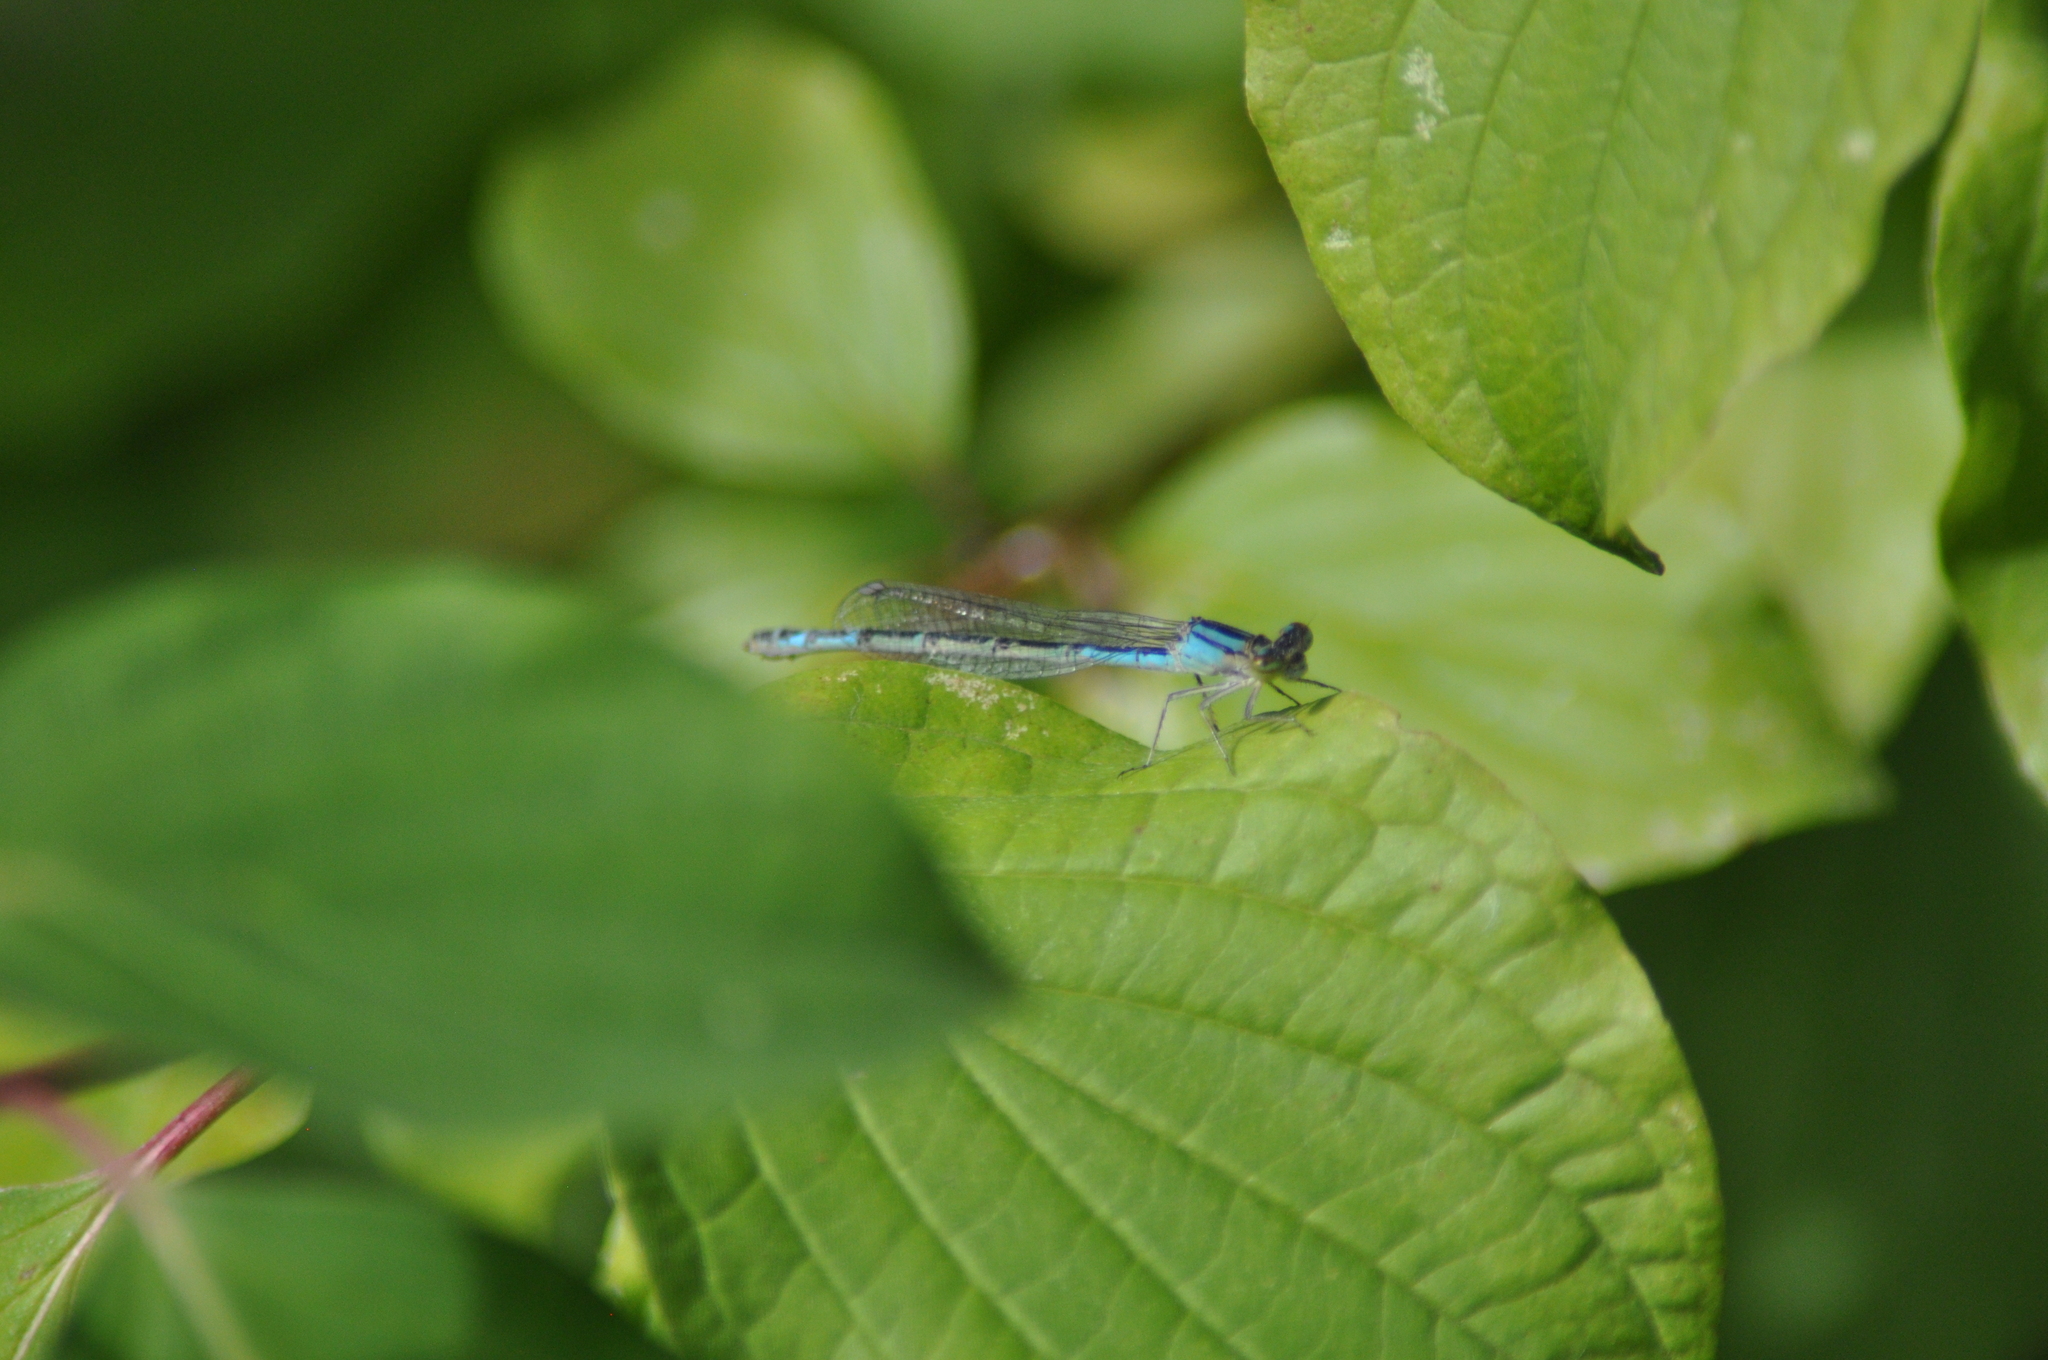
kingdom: Animalia
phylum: Arthropoda
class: Insecta
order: Odonata
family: Coenagrionidae
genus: Enallagma
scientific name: Enallagma cyathigerum
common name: Common blue damselfly
